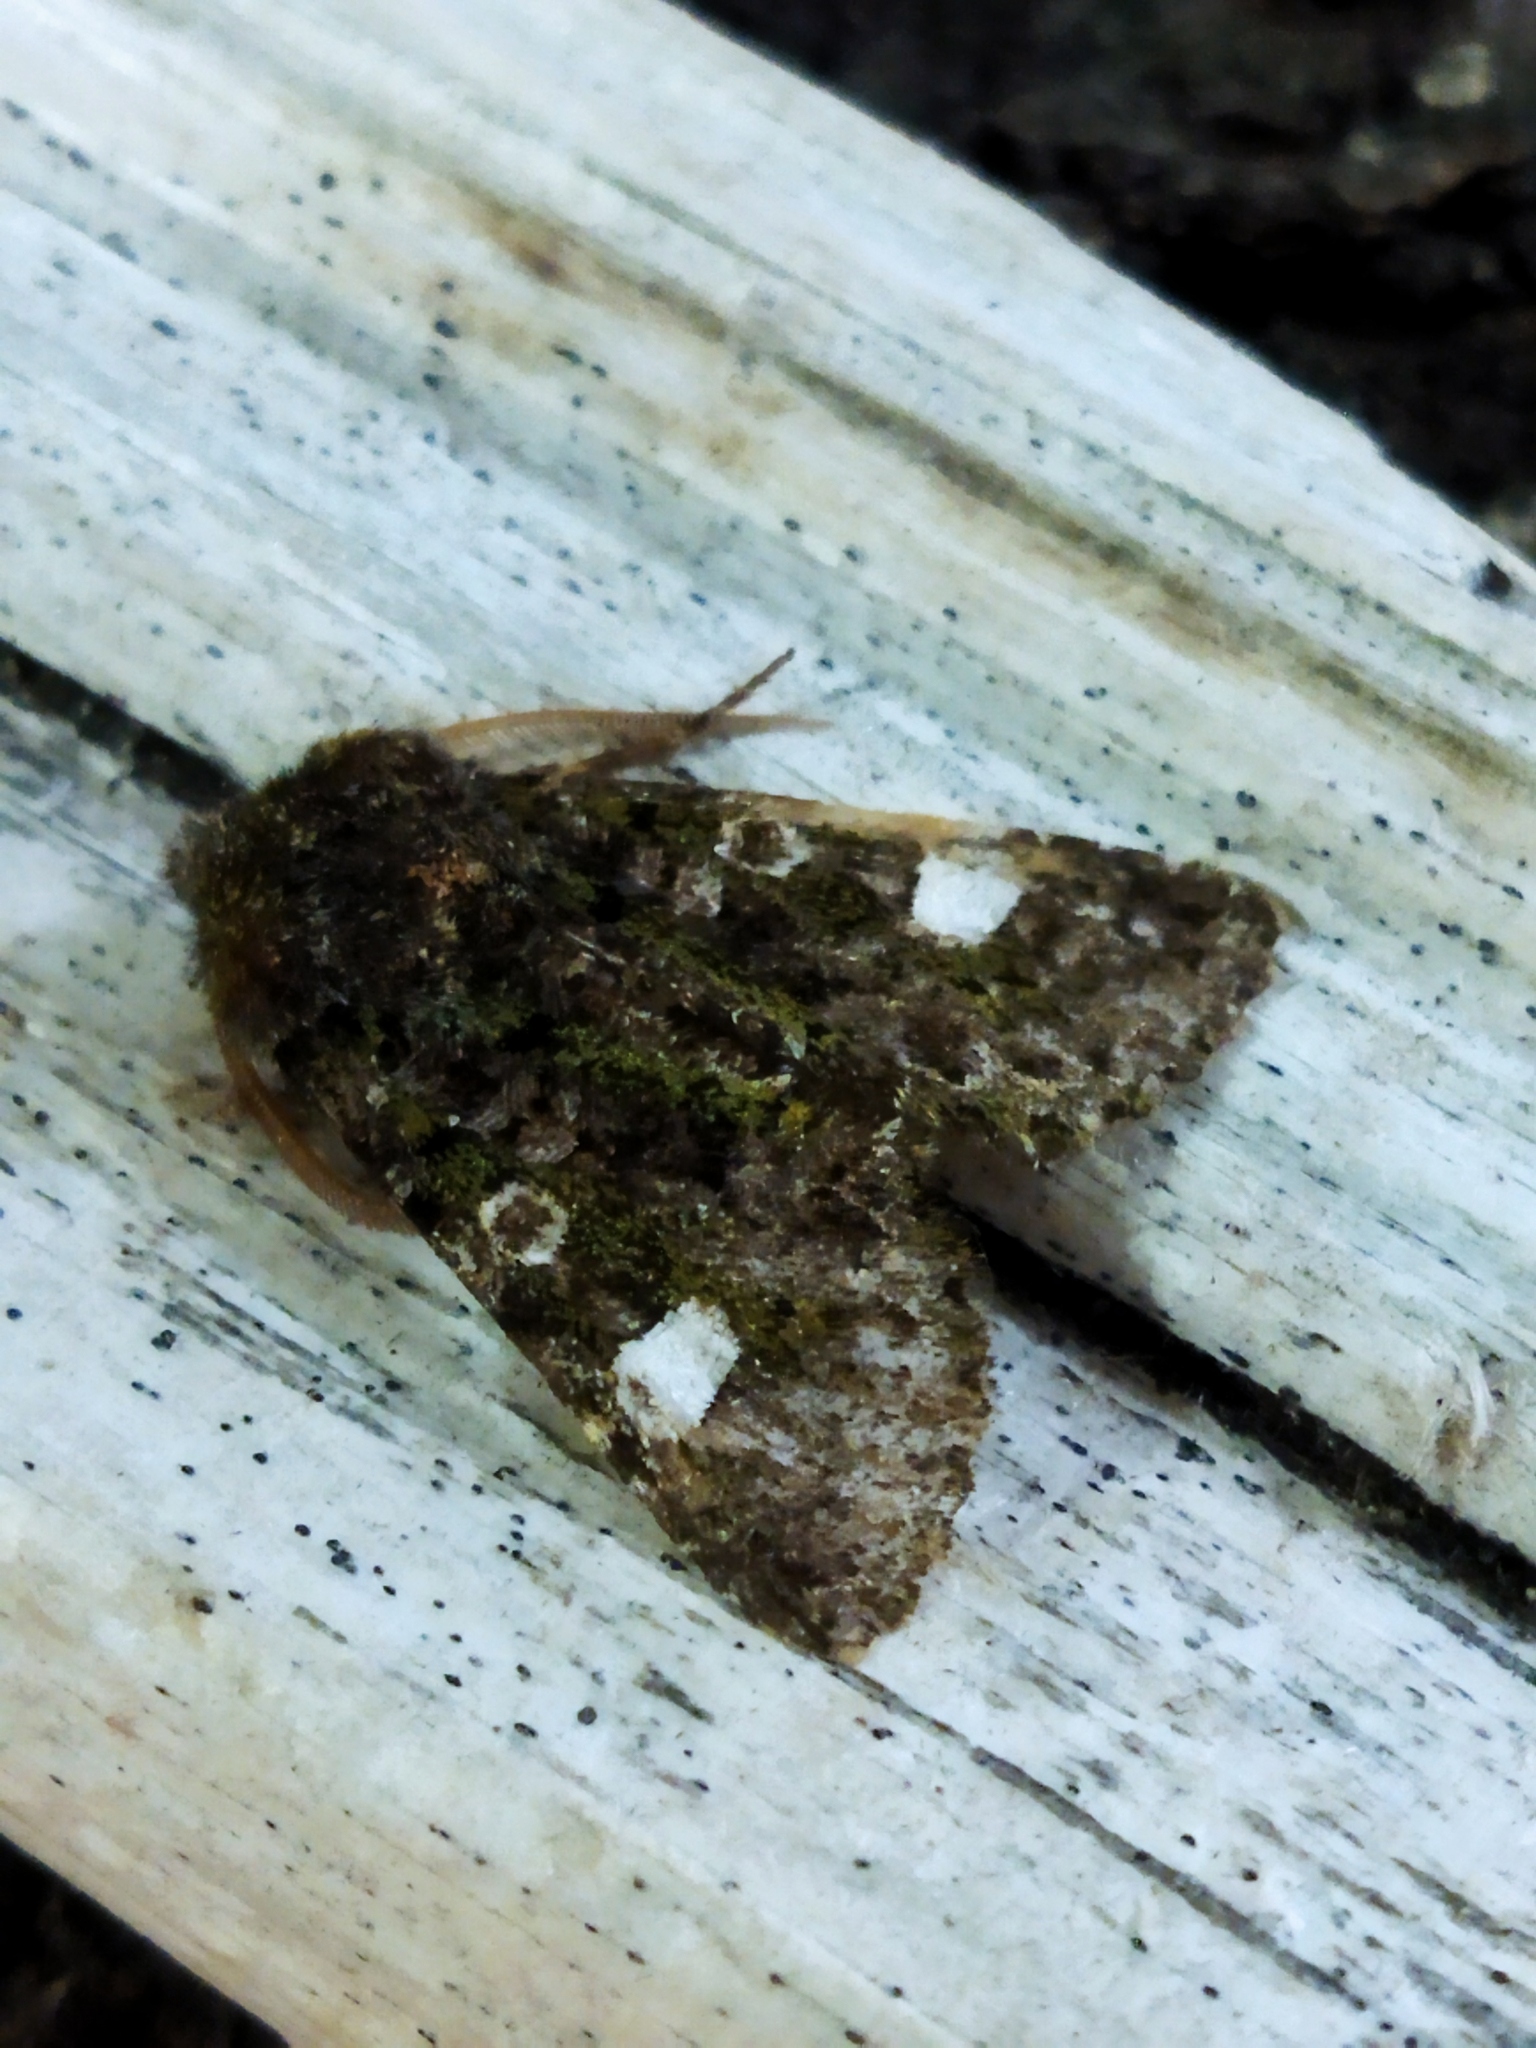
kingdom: Animalia
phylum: Arthropoda
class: Insecta
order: Lepidoptera
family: Noctuidae
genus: Valeria
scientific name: Valeria oleagina
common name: Green-brindled dot
